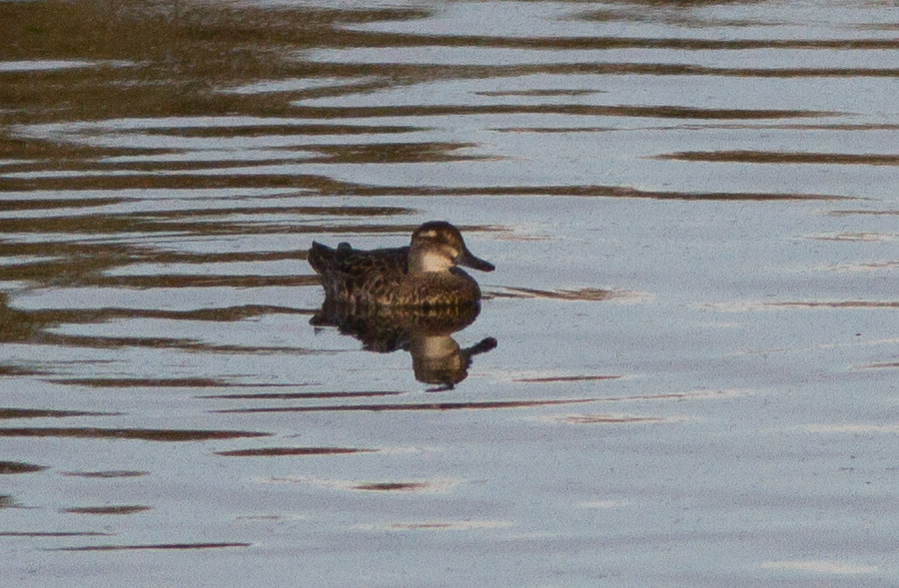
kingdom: Animalia
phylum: Chordata
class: Aves
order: Anseriformes
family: Anatidae
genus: Spatula
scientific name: Spatula querquedula
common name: Garganey
